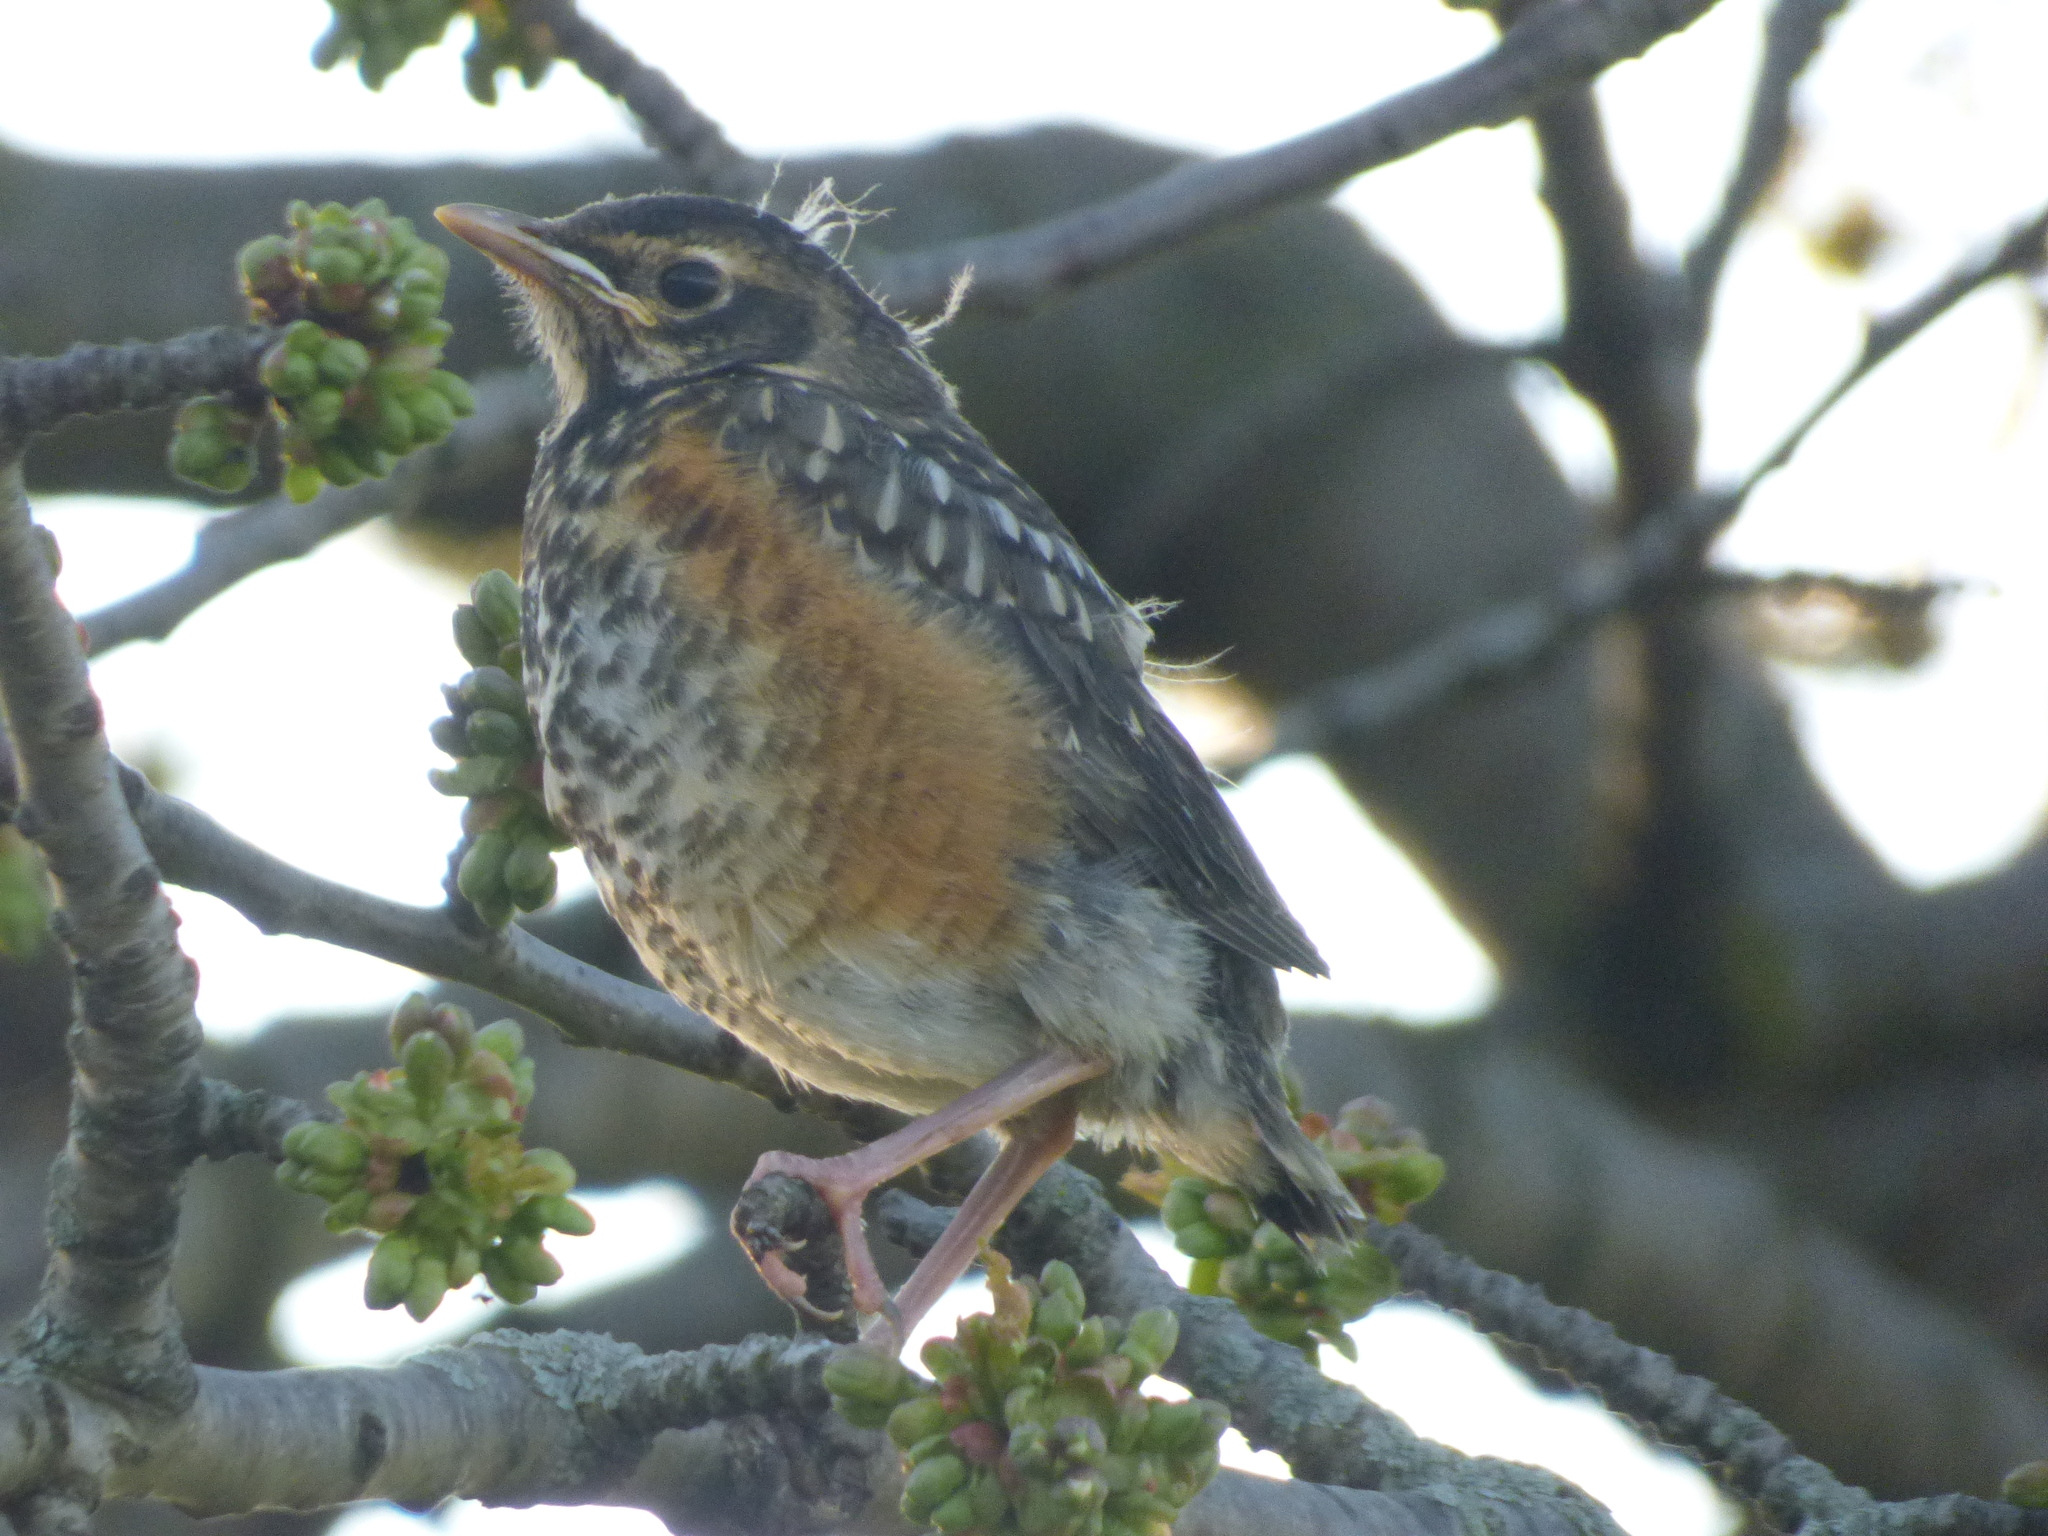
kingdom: Animalia
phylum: Chordata
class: Aves
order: Passeriformes
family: Turdidae
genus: Turdus
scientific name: Turdus migratorius
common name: American robin
